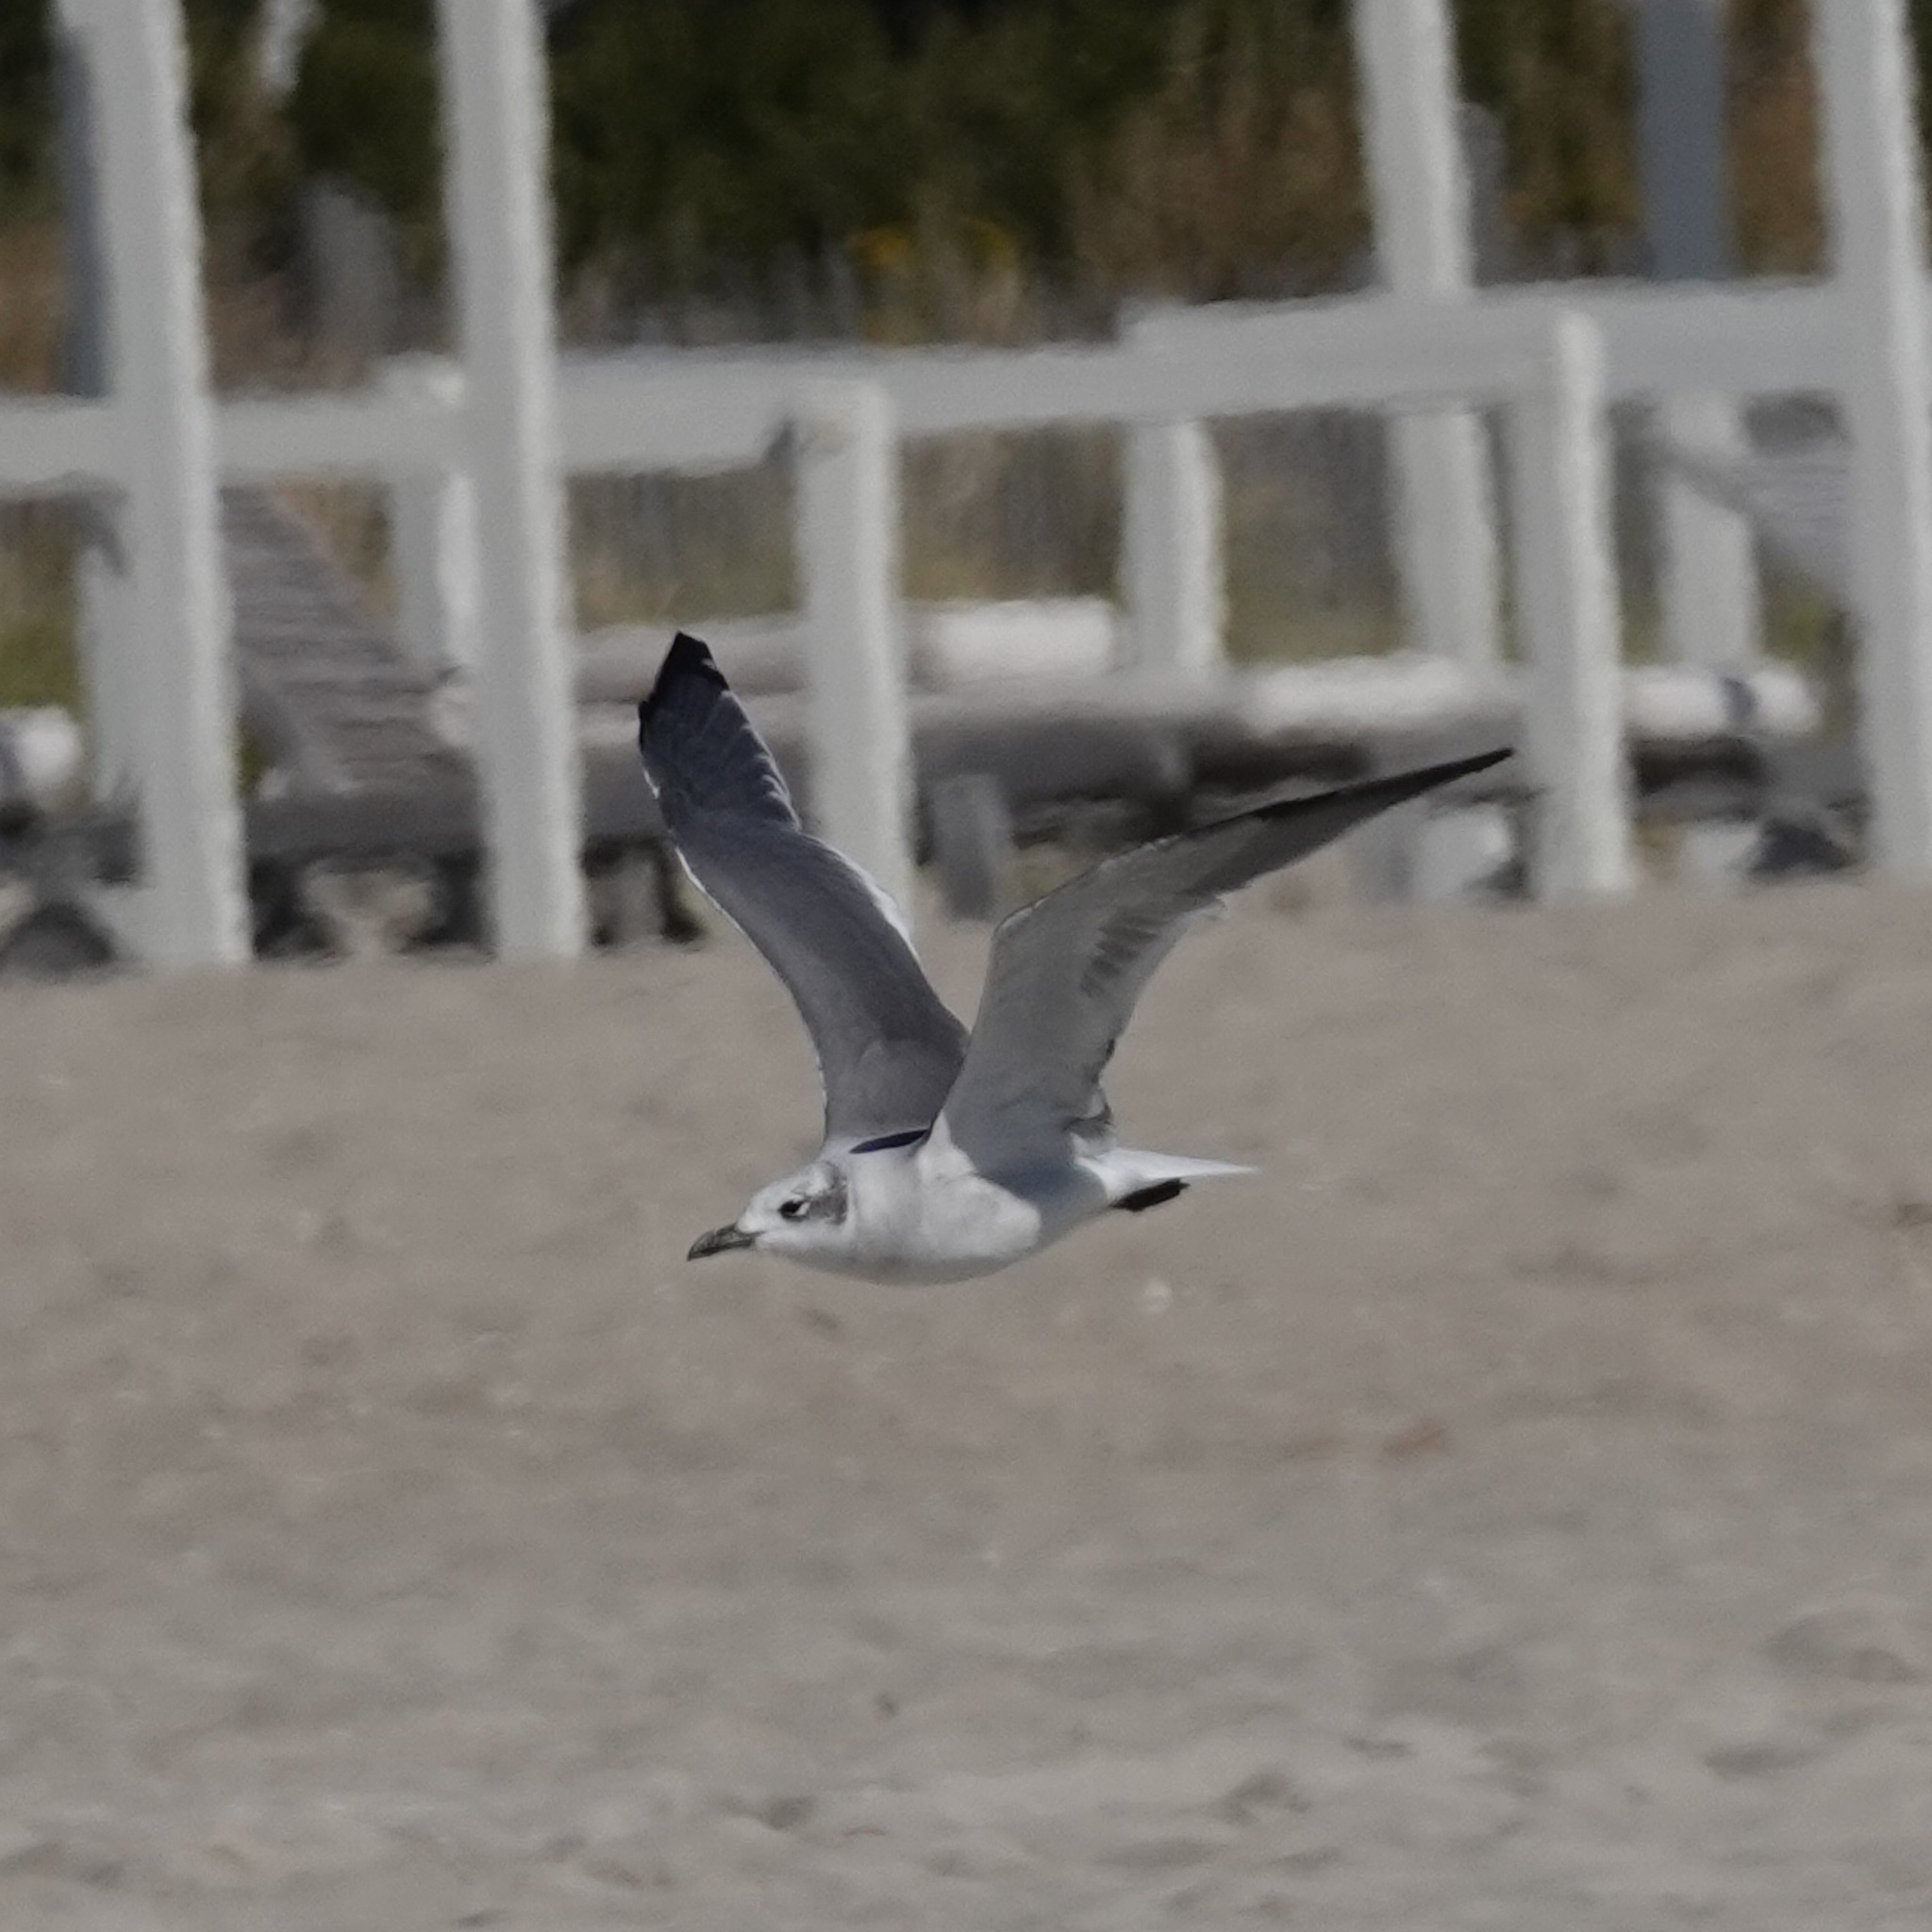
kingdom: Animalia
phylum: Chordata
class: Aves
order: Charadriiformes
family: Laridae
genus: Leucophaeus
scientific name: Leucophaeus atricilla
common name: Laughing gull
